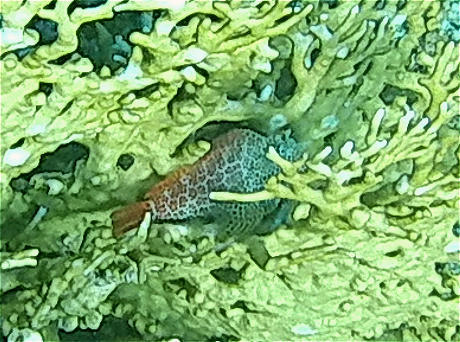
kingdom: Animalia
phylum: Chordata
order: Perciformes
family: Blenniidae
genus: Exallias
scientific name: Exallias brevis
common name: Leopard blenny
